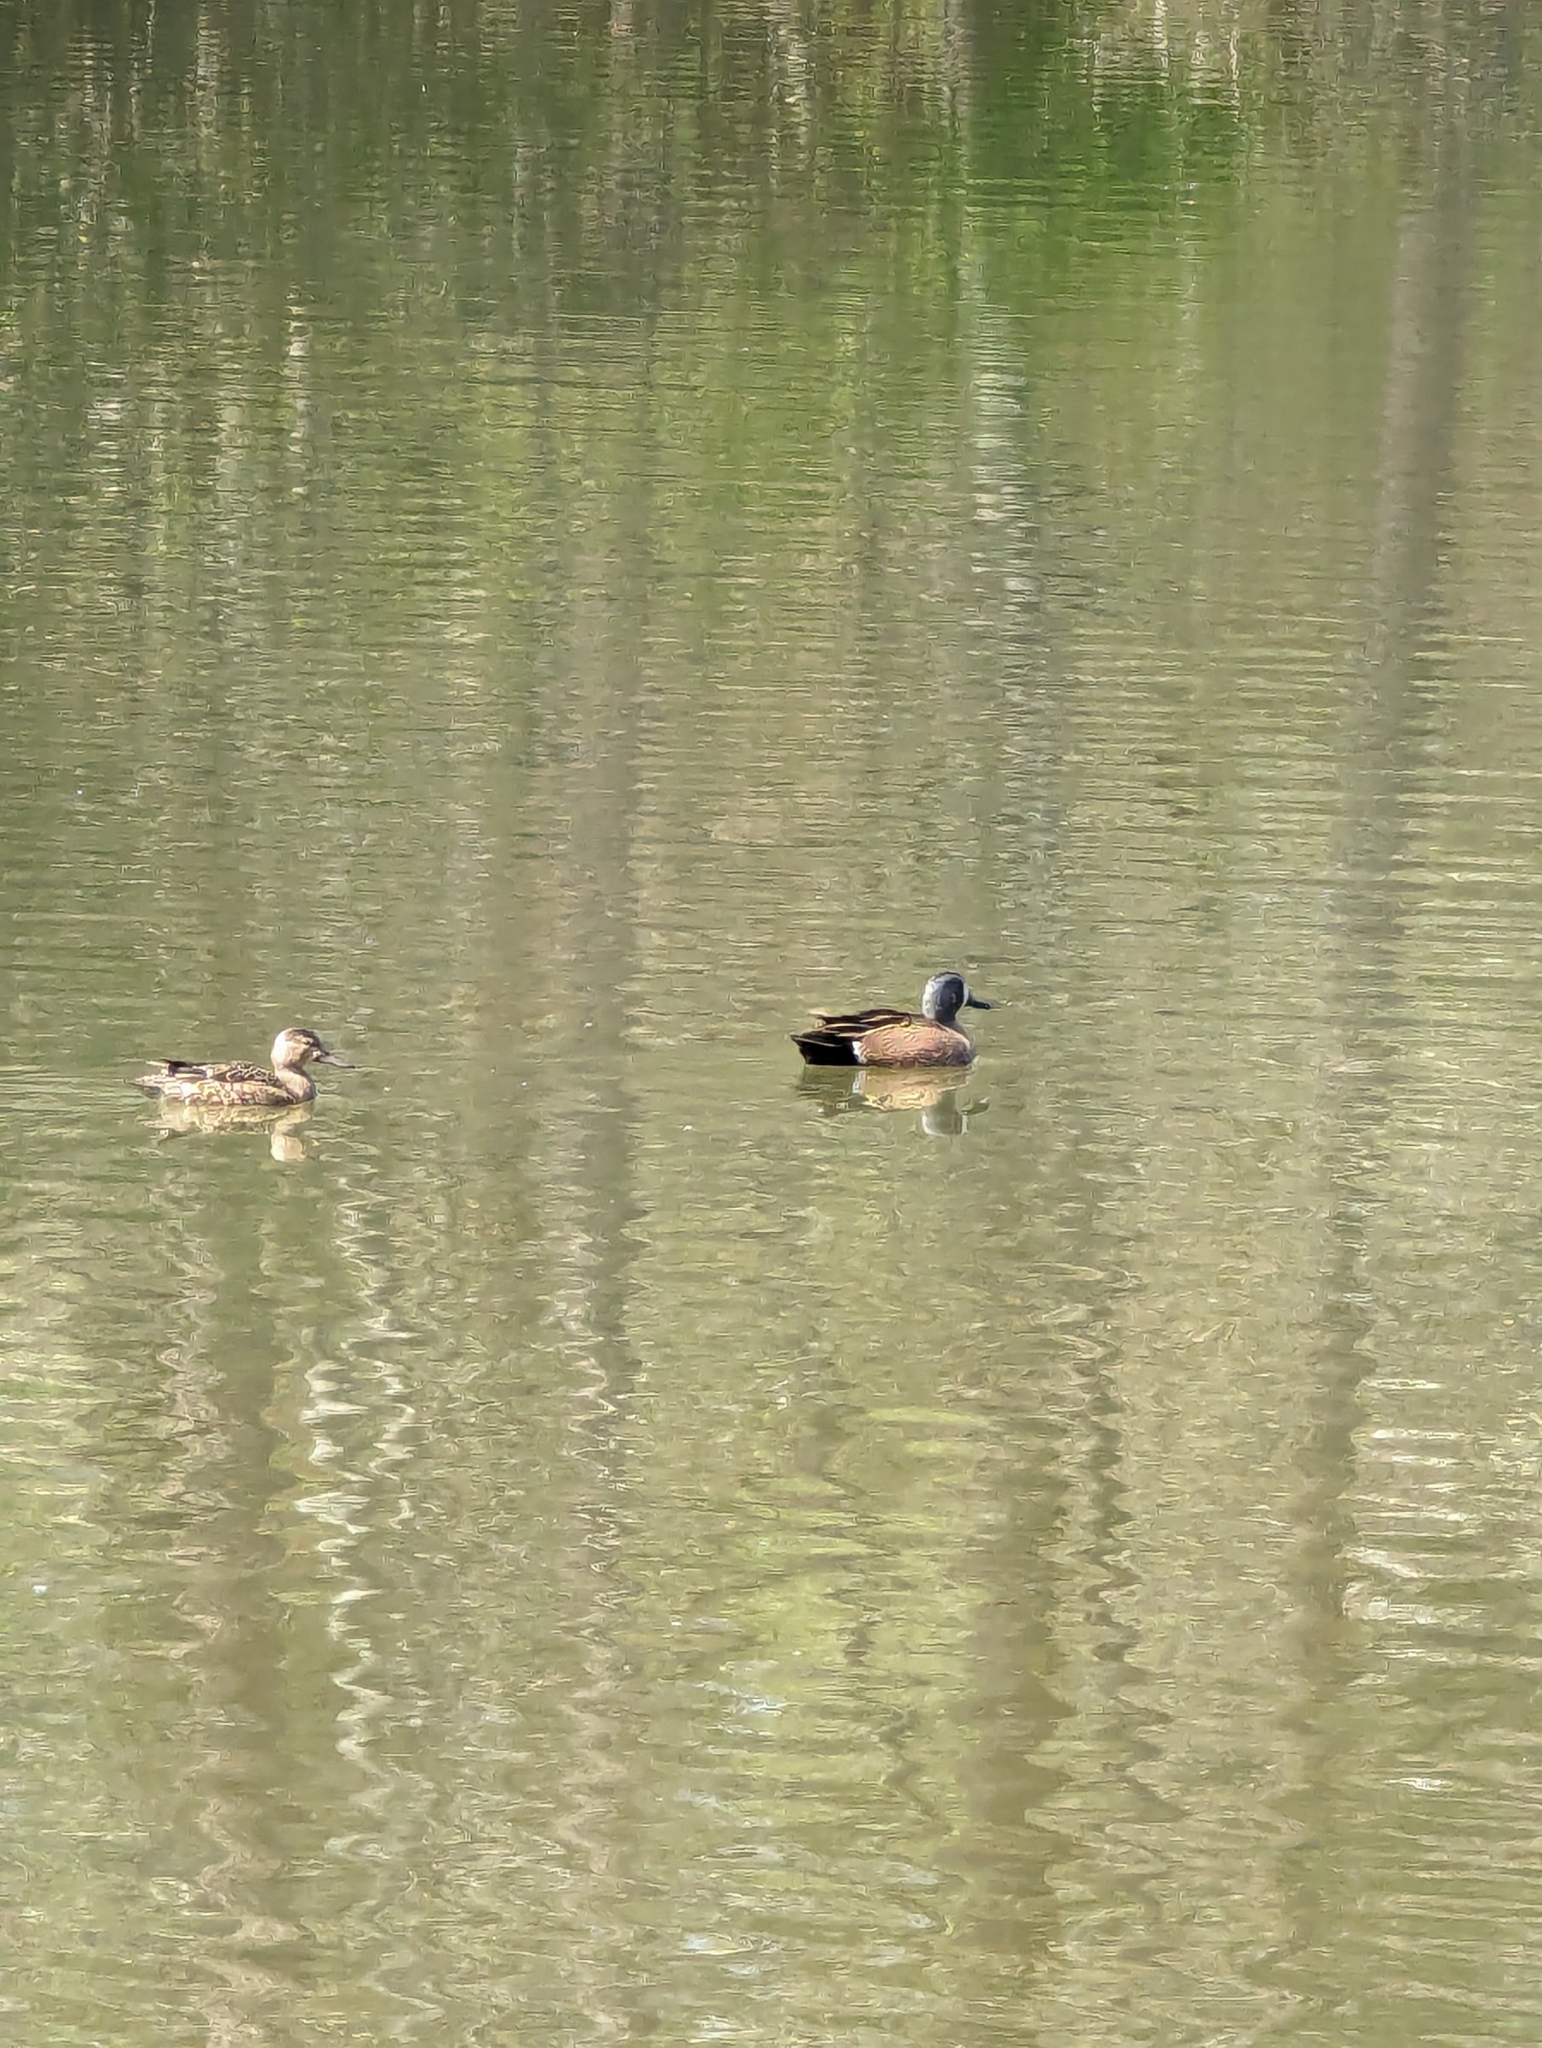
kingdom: Animalia
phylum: Chordata
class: Aves
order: Anseriformes
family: Anatidae
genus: Spatula
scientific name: Spatula discors
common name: Blue-winged teal
